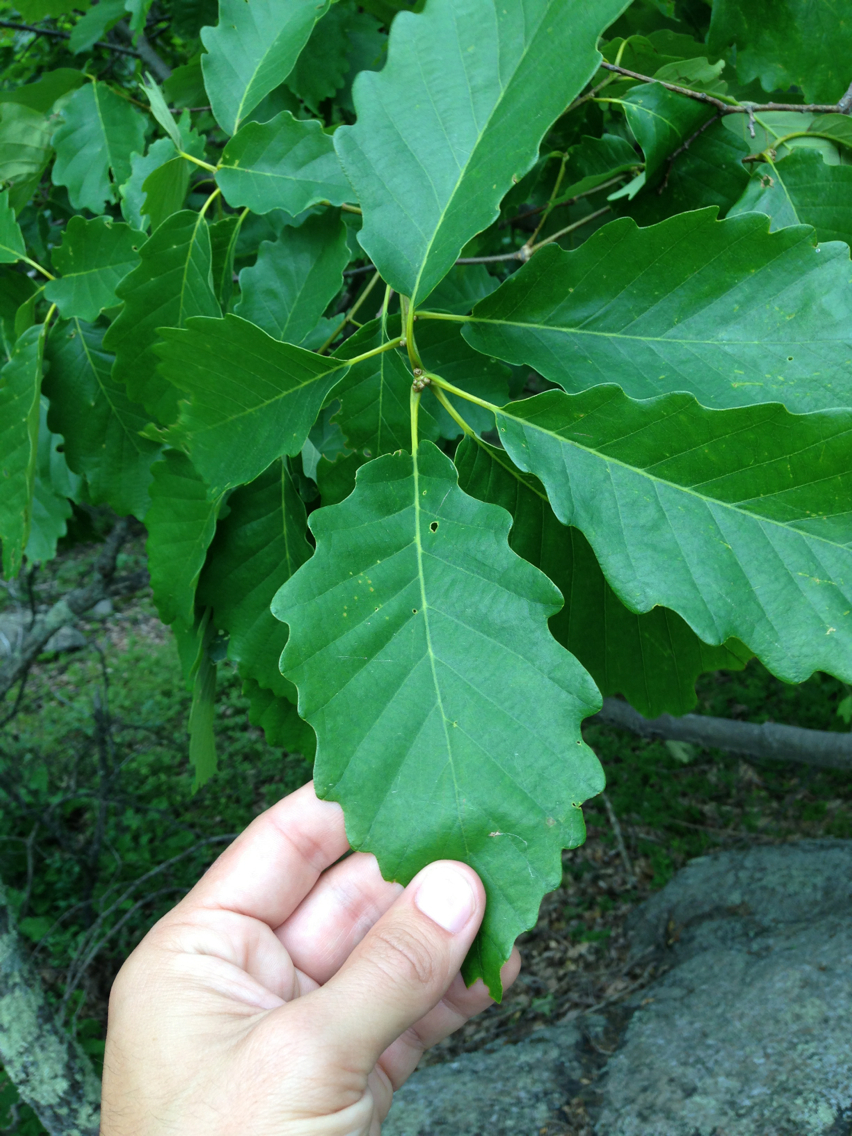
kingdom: Plantae
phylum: Tracheophyta
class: Magnoliopsida
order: Fagales
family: Fagaceae
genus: Quercus
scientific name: Quercus montana
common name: Chestnut oak
